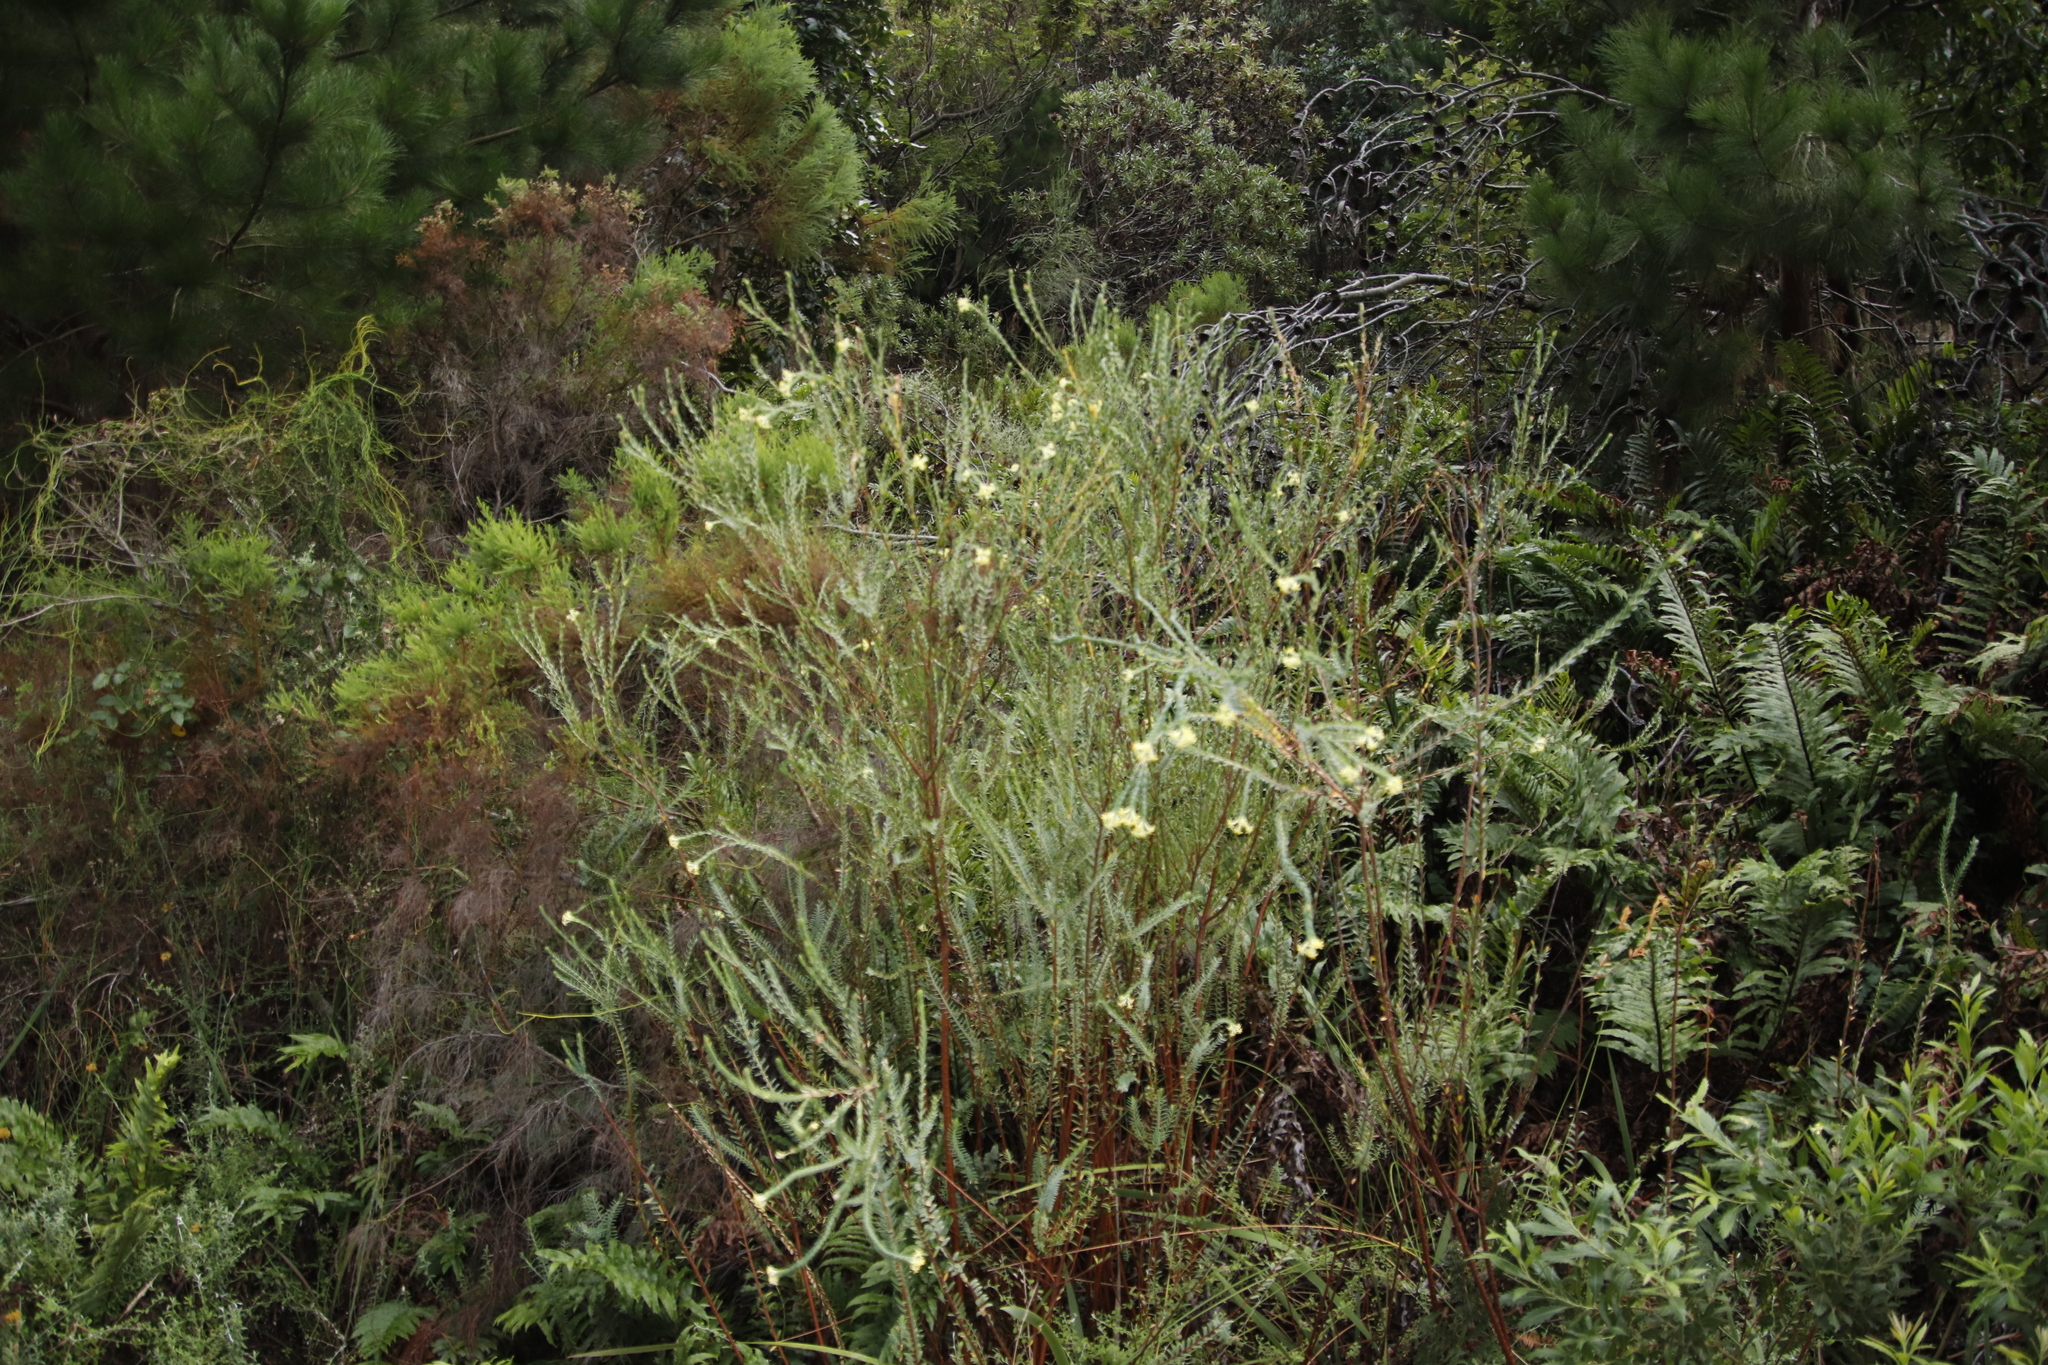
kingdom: Plantae
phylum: Tracheophyta
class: Magnoliopsida
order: Malvales
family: Thymelaeaceae
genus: Gnidia
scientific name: Gnidia oppositifolia
